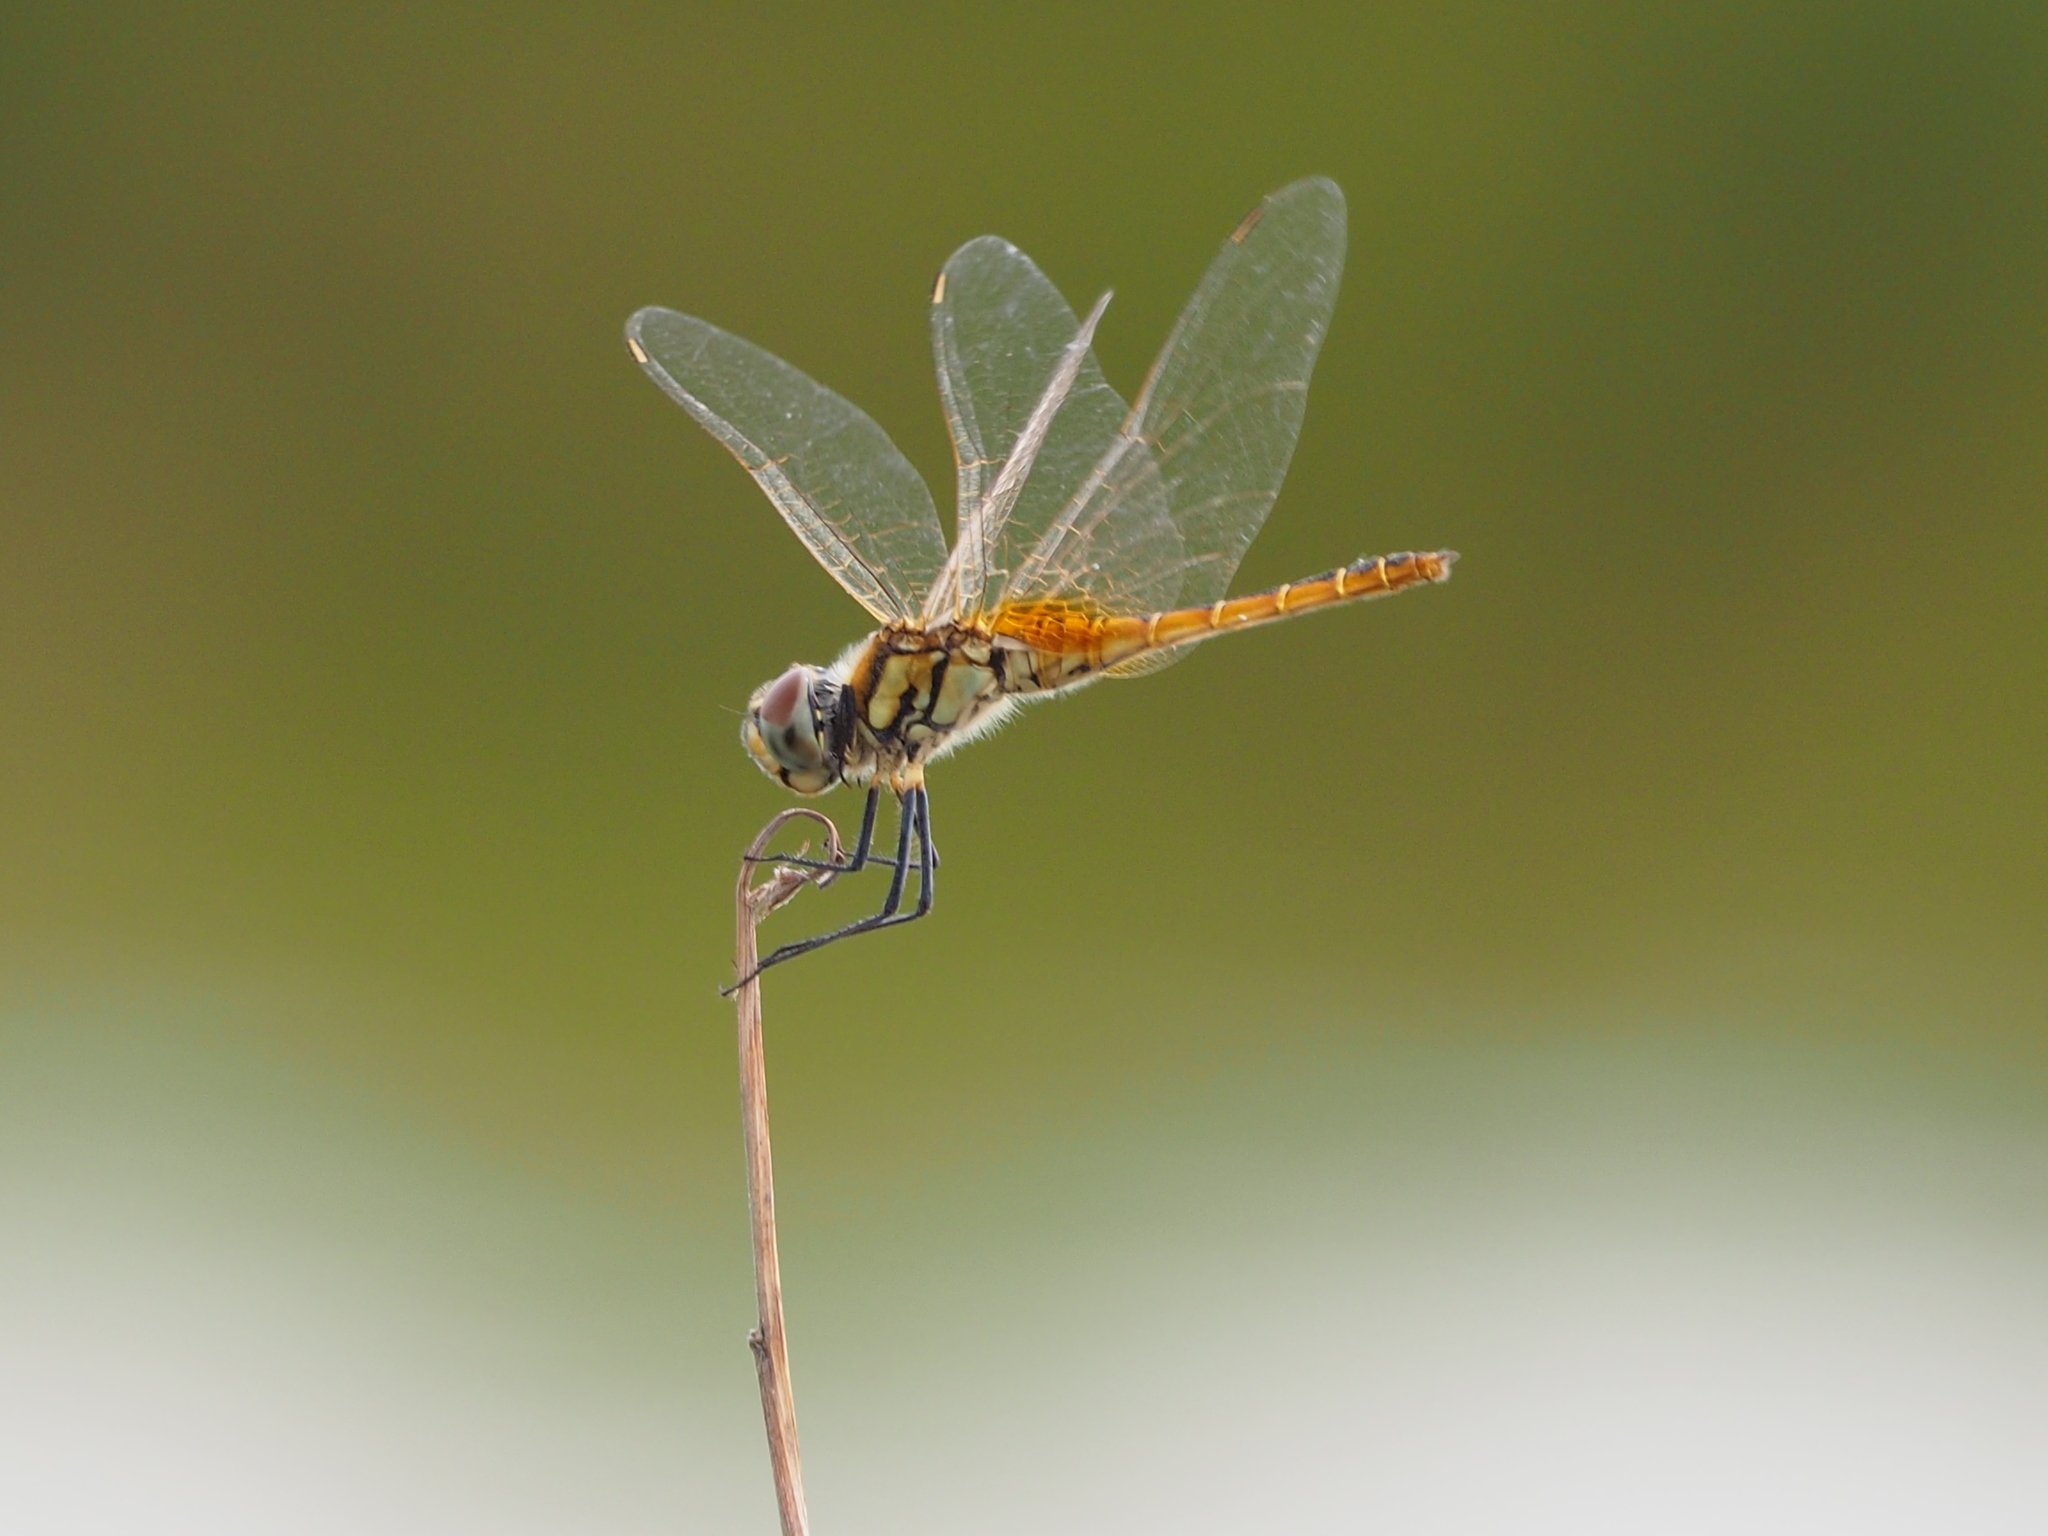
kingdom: Animalia
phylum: Arthropoda
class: Insecta
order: Odonata
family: Libellulidae
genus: Macrodiplax
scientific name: Macrodiplax cora
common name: Coastal glider
